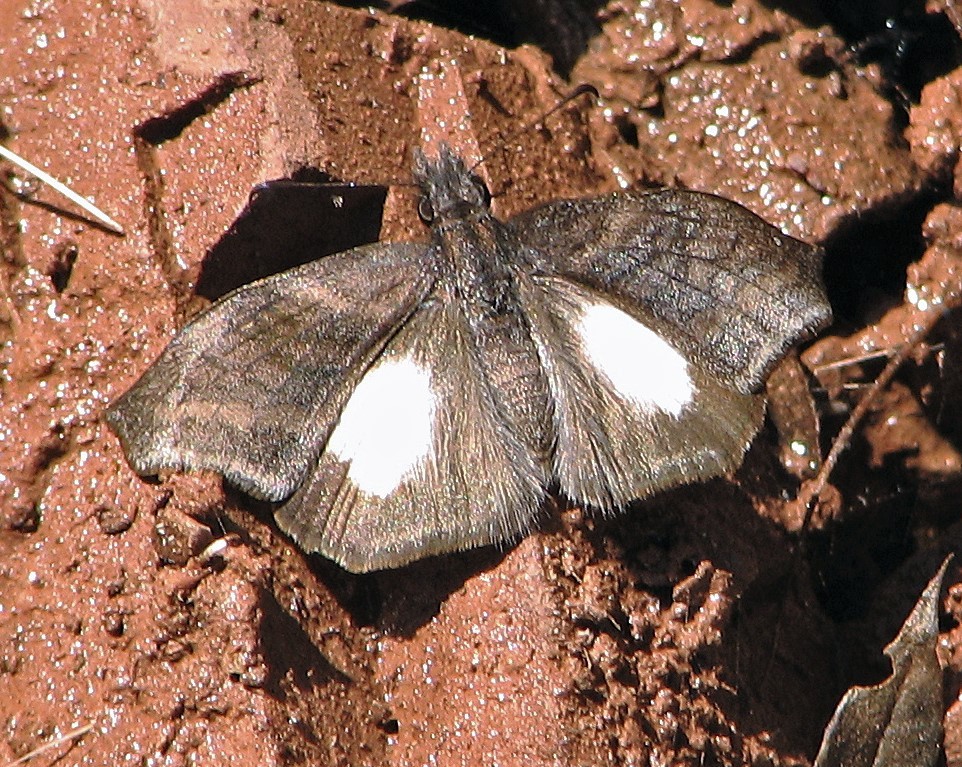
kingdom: Animalia
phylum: Arthropoda
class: Insecta
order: Lepidoptera
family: Hesperiidae
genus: Theagenes
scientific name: Theagenes albiplaga
